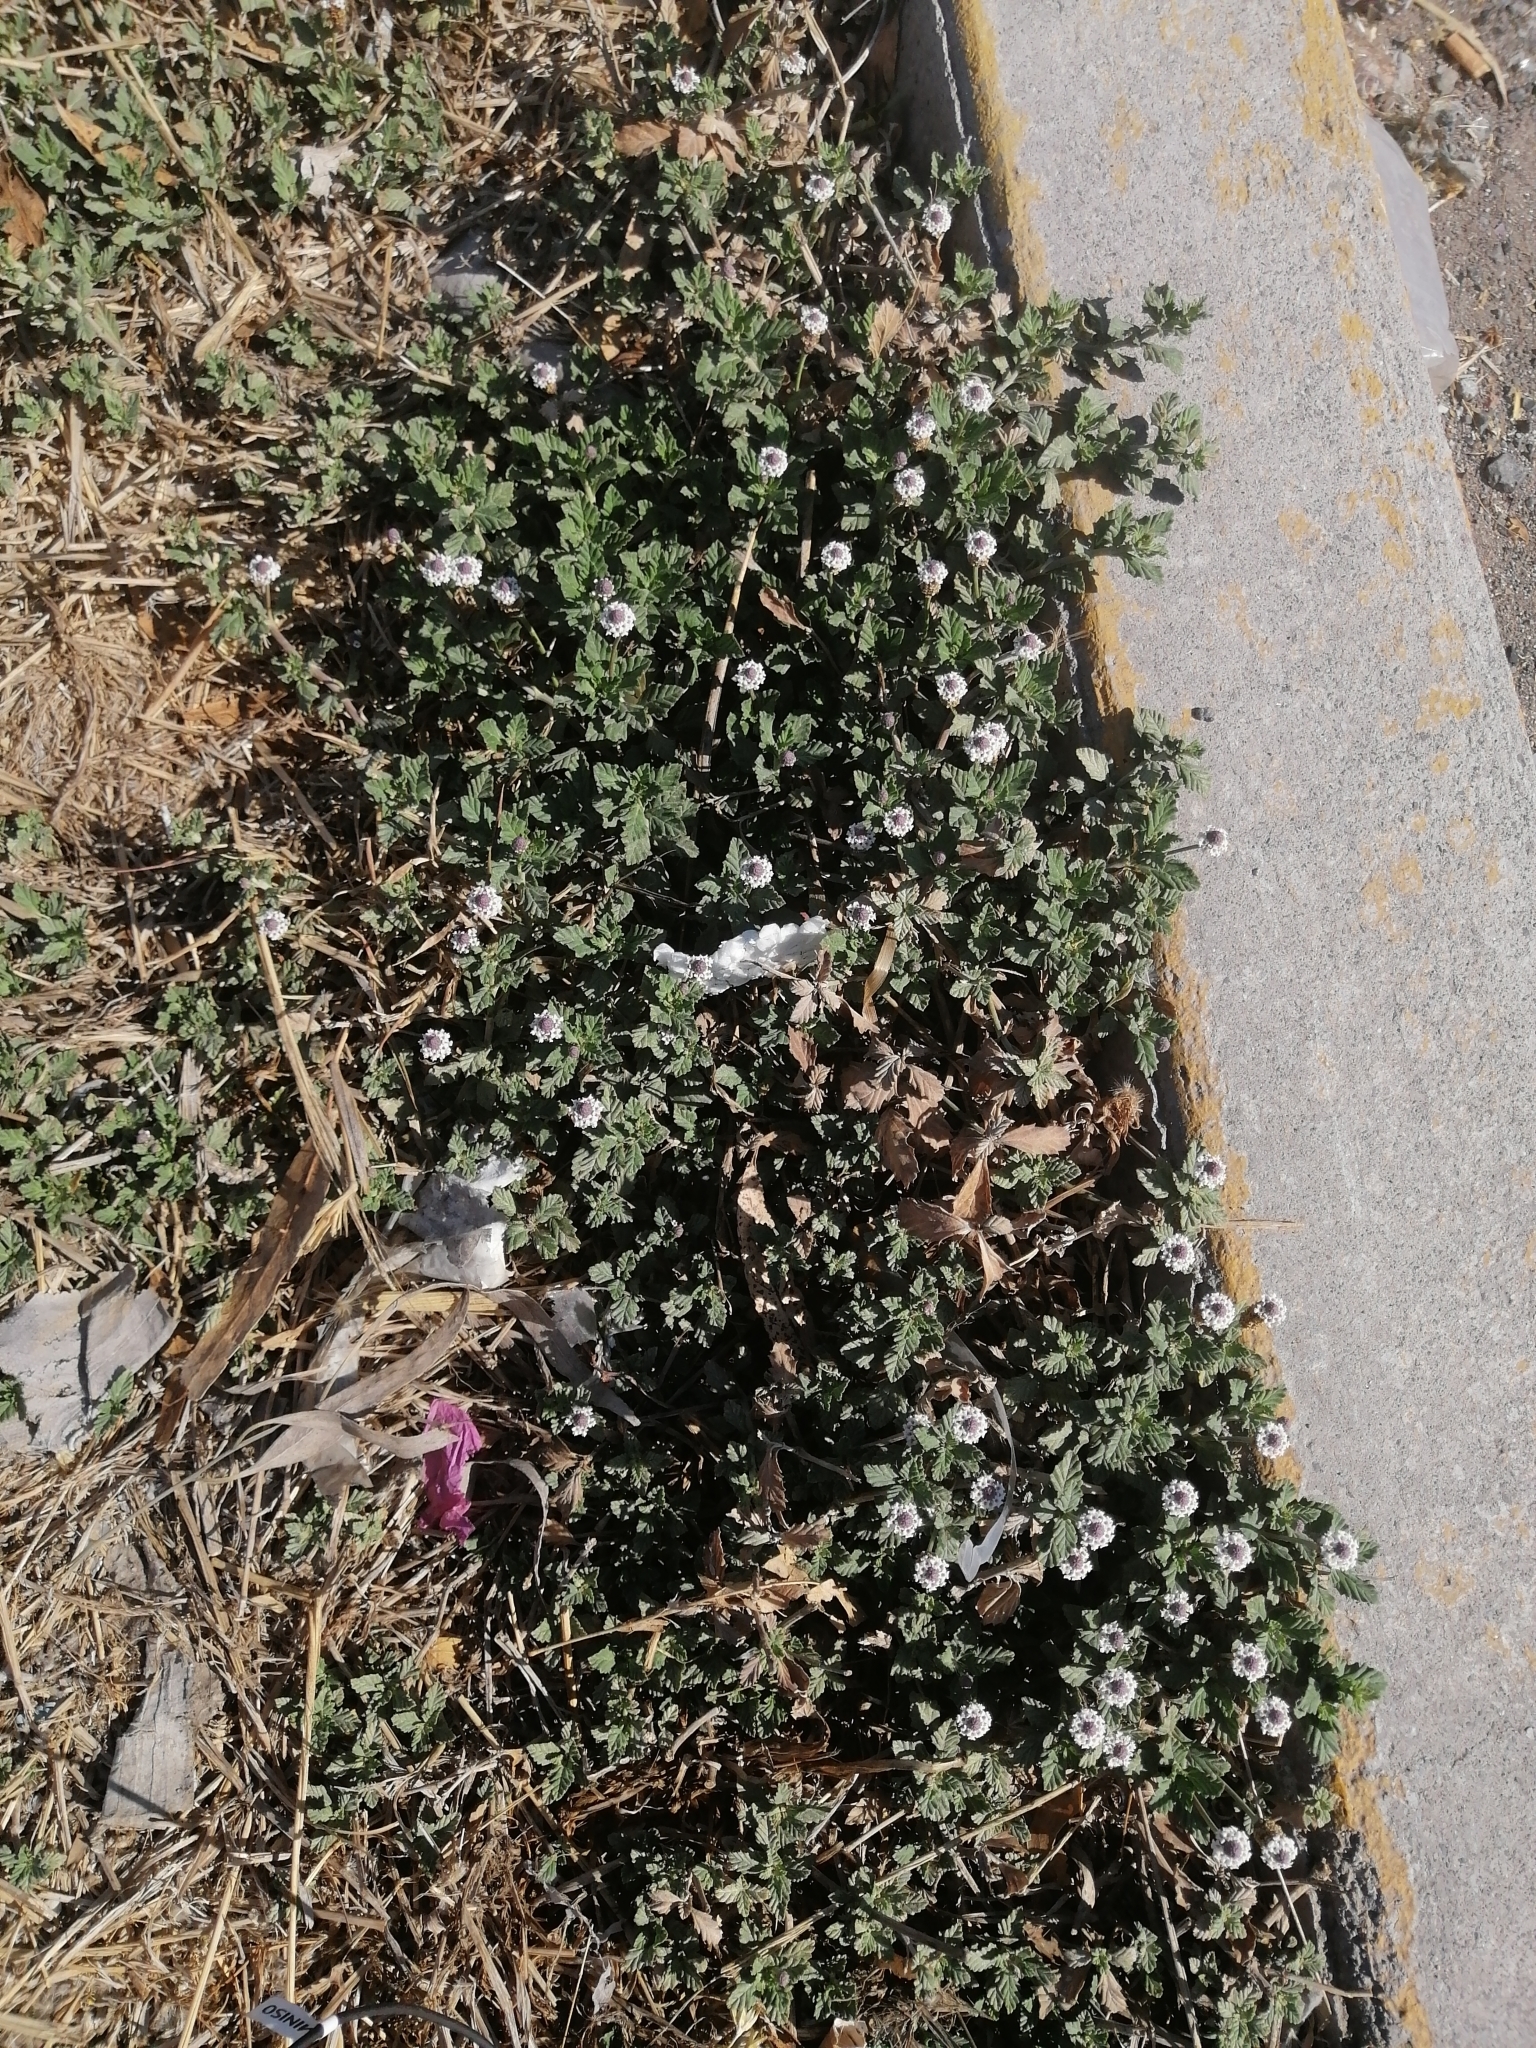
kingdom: Plantae
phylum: Tracheophyta
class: Magnoliopsida
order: Lamiales
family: Verbenaceae
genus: Phyla
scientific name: Phyla nodiflora
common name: Frogfruit
